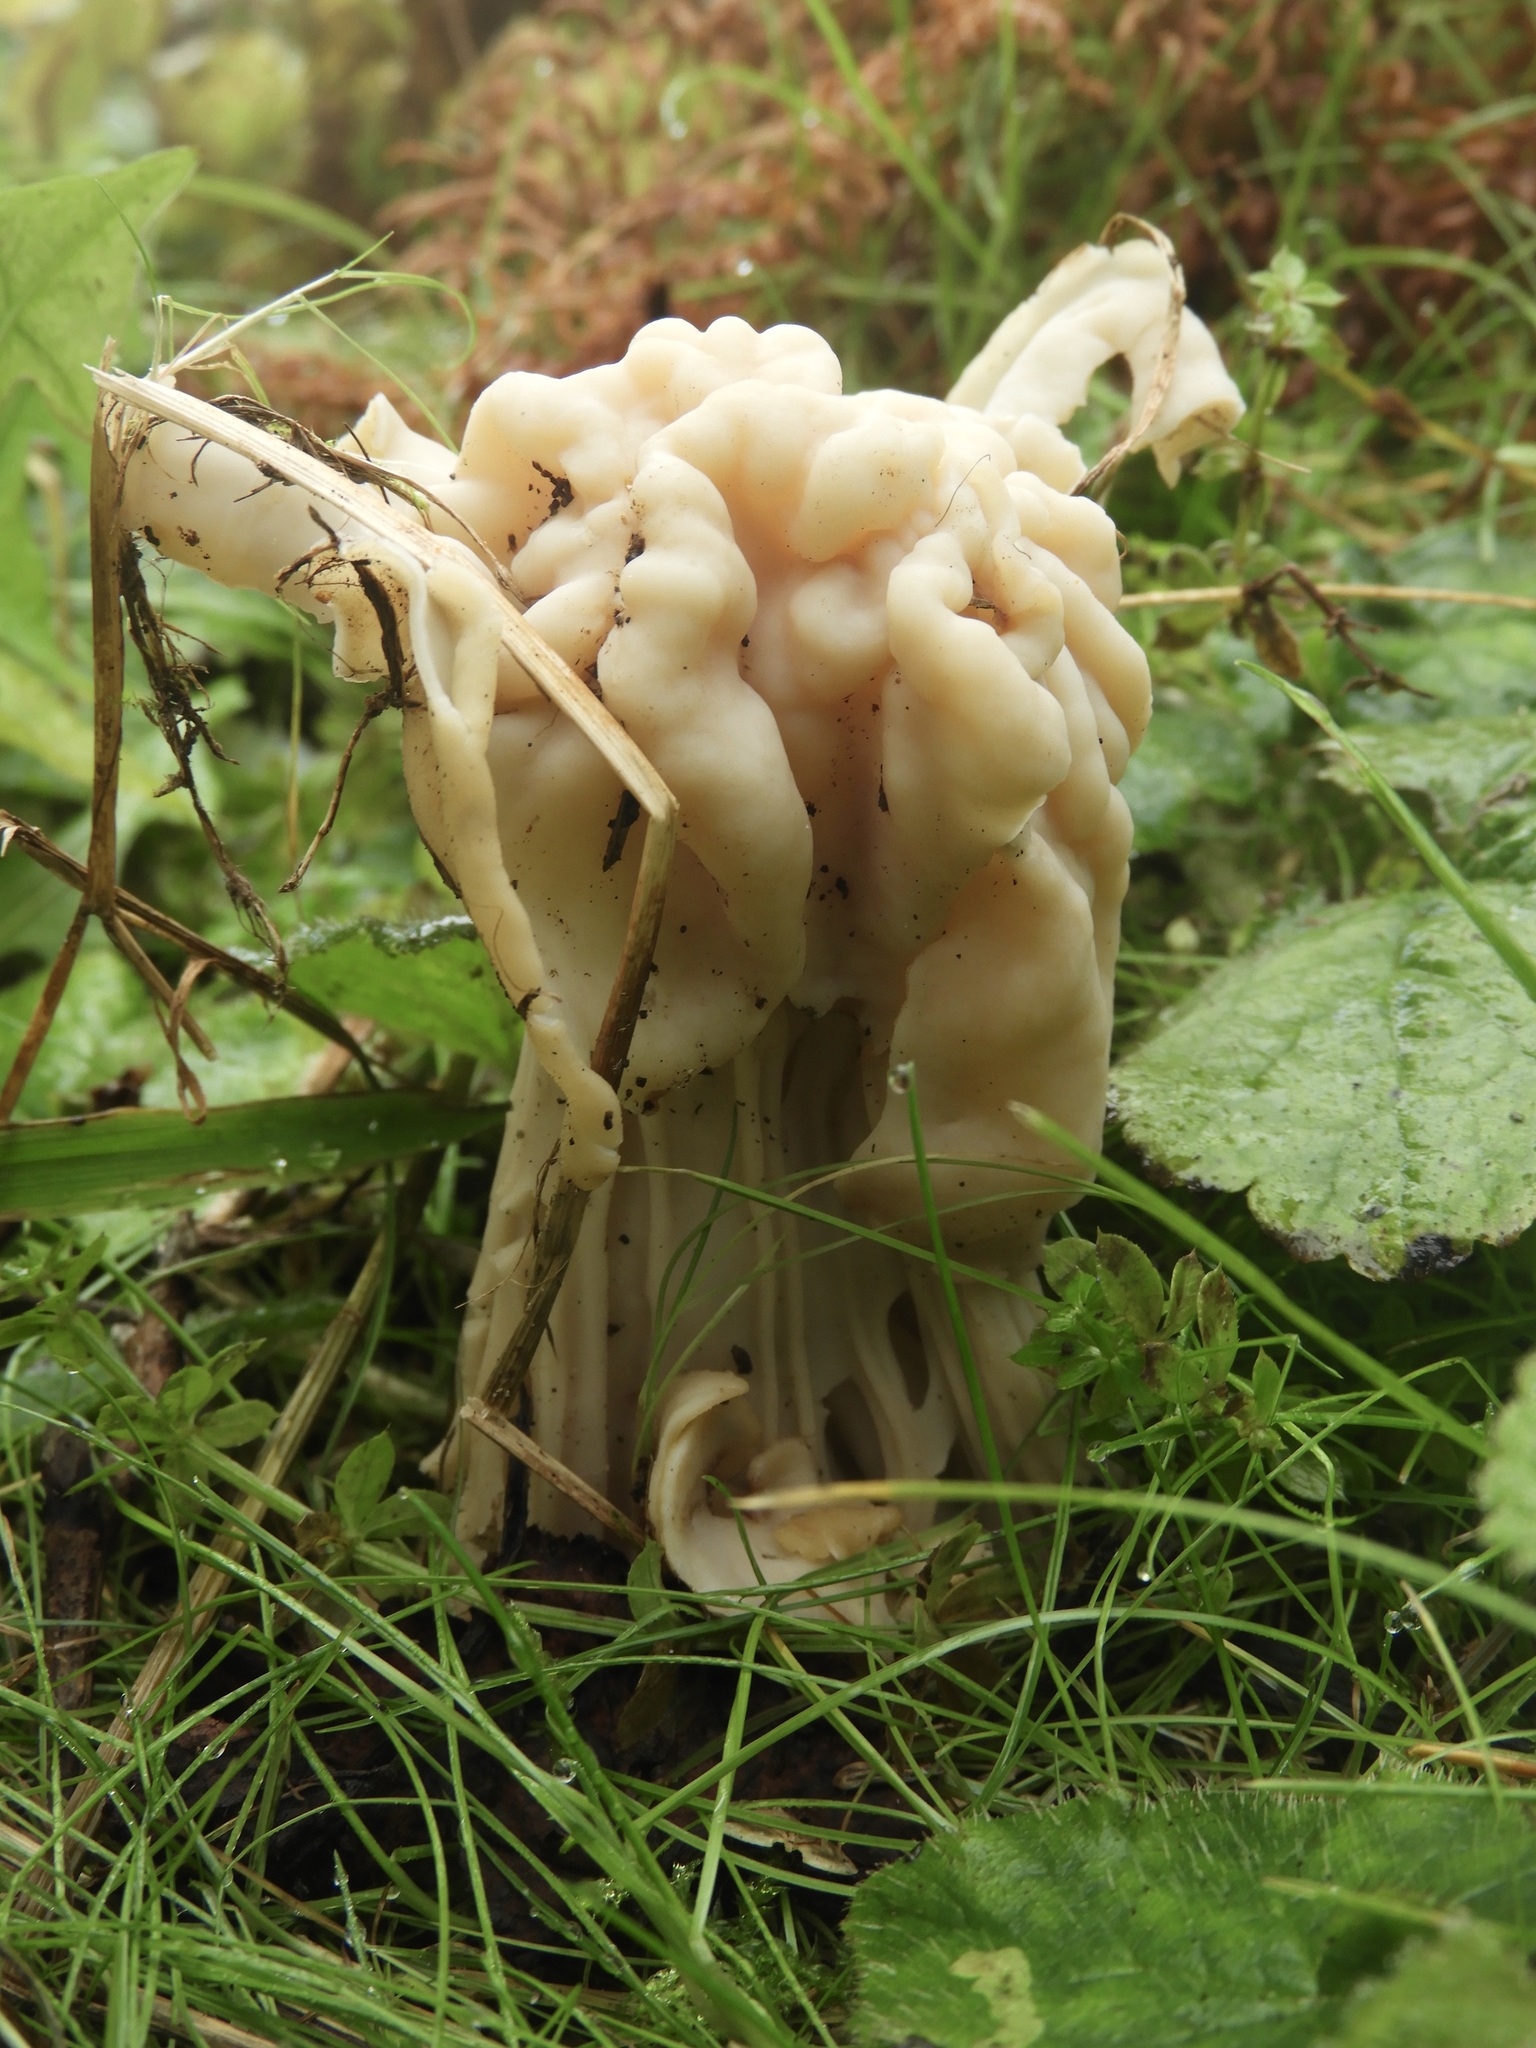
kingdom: Fungi
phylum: Ascomycota
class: Pezizomycetes
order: Pezizales
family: Helvellaceae
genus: Helvella
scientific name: Helvella crispa
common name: White saddle
